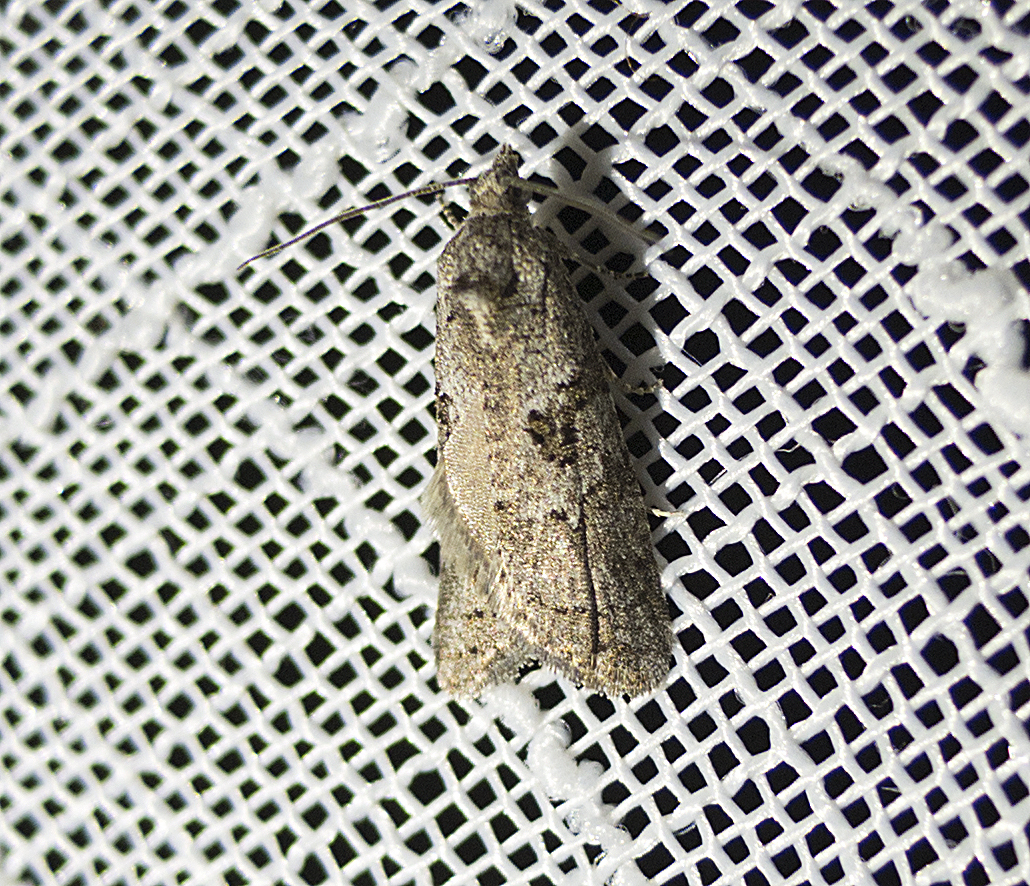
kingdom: Animalia
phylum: Arthropoda
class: Insecta
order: Lepidoptera
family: Tortricidae
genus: Cnephasia
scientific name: Cnephasia communana
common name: May shade
